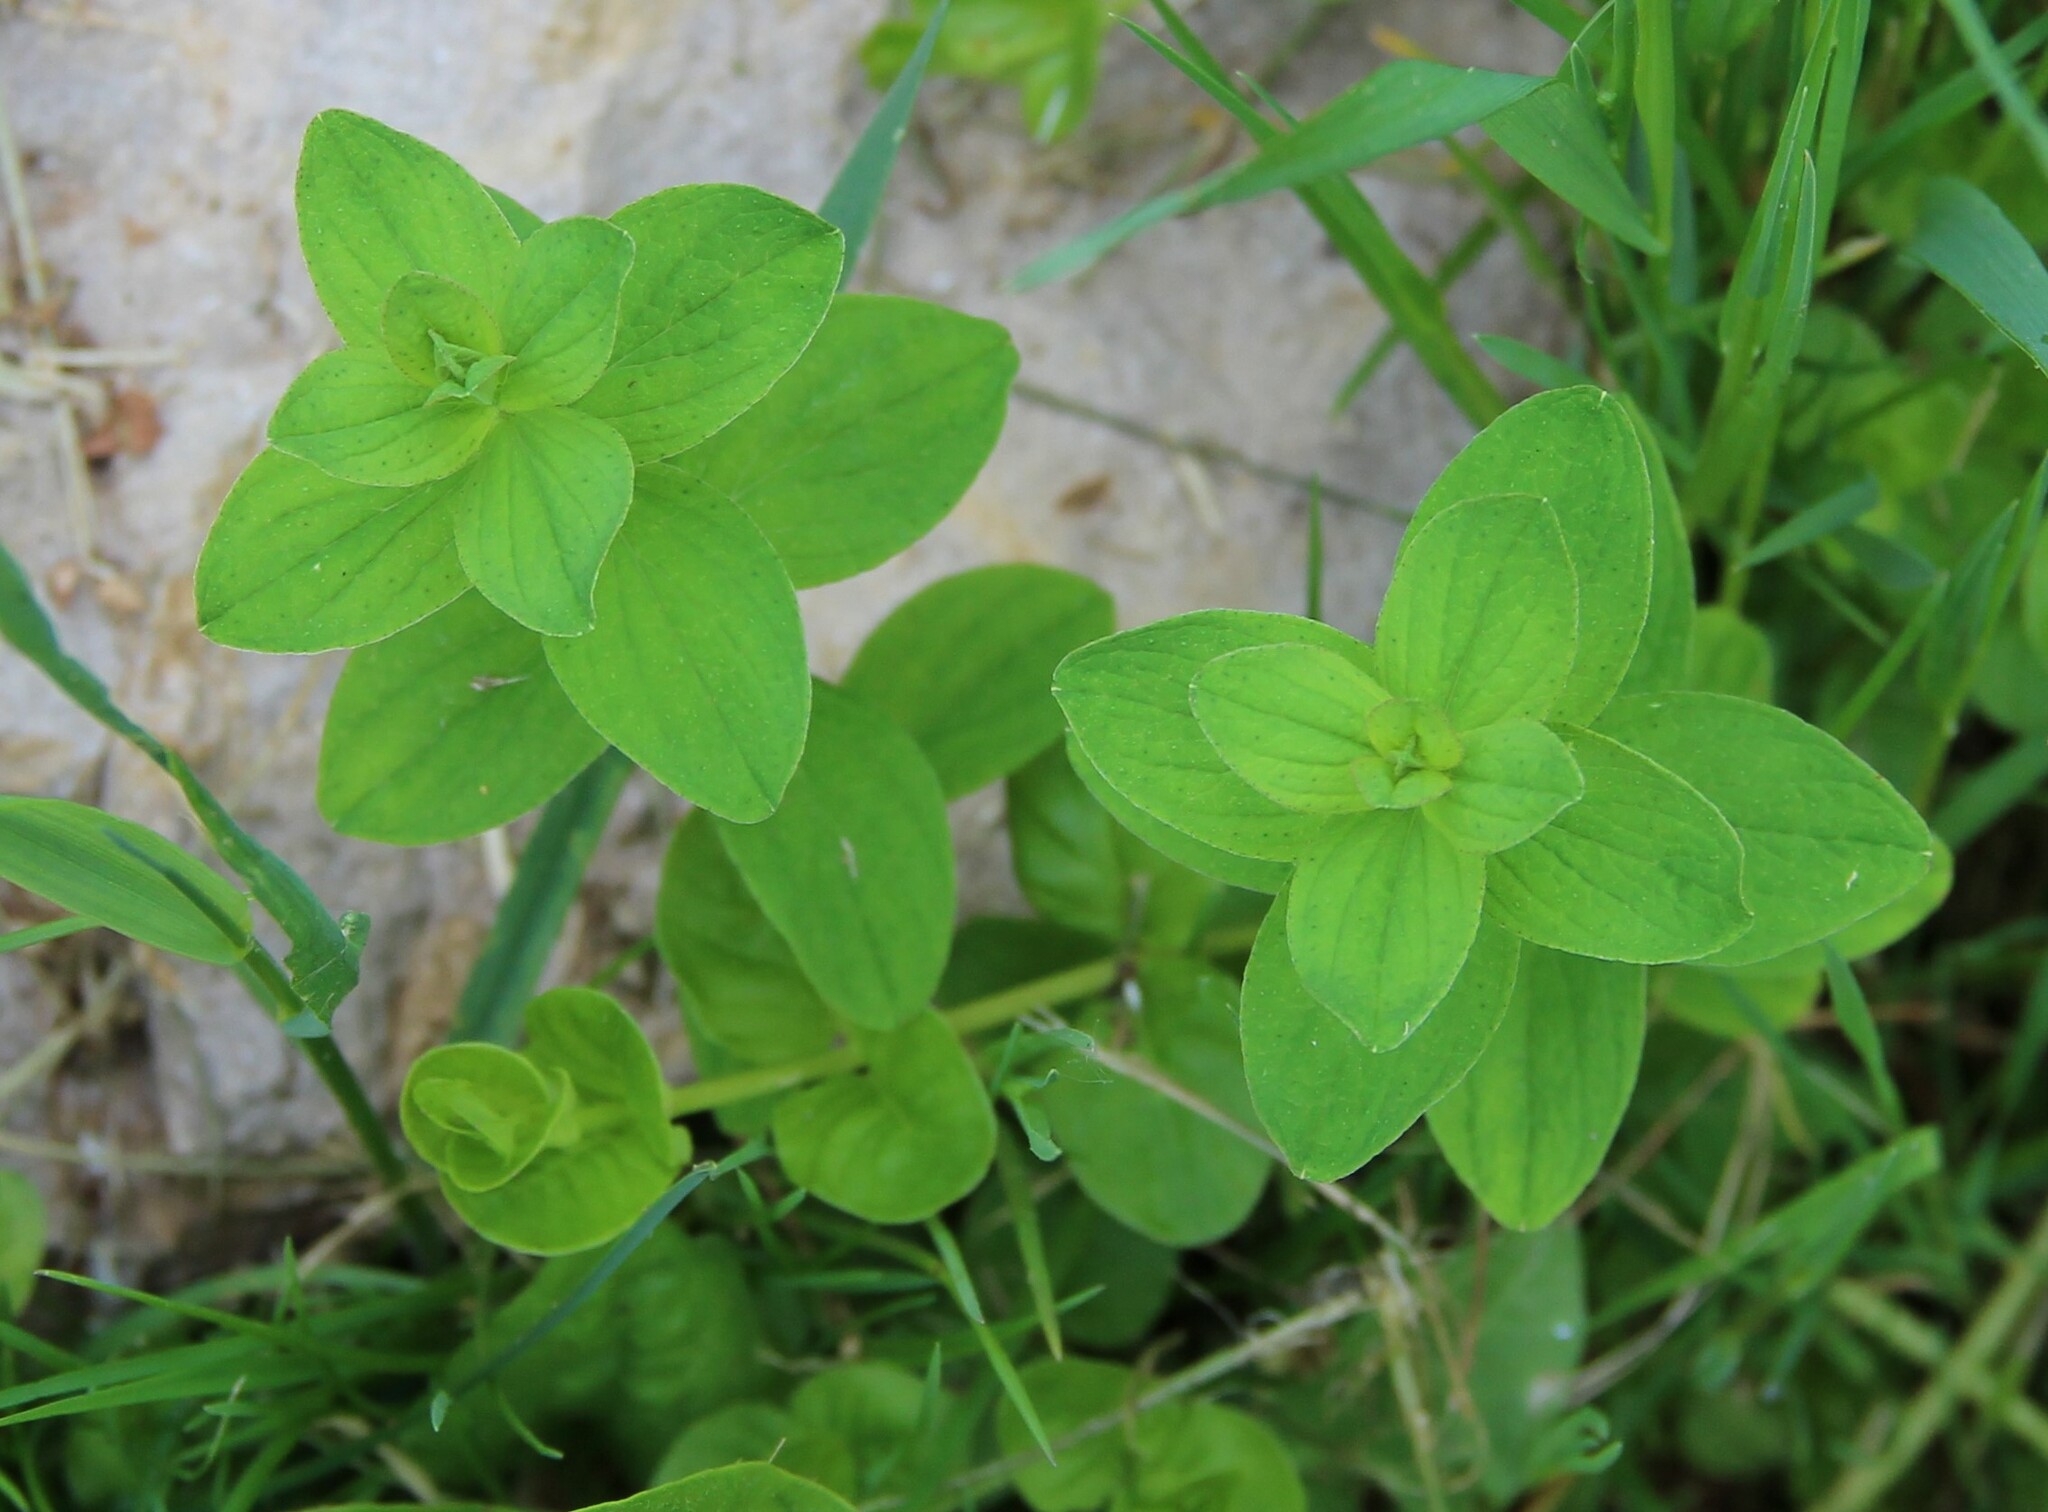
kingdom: Plantae
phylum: Tracheophyta
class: Magnoliopsida
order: Malpighiales
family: Hypericaceae
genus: Hypericum
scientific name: Hypericum maculatum
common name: Imperforate st. john's-wort
